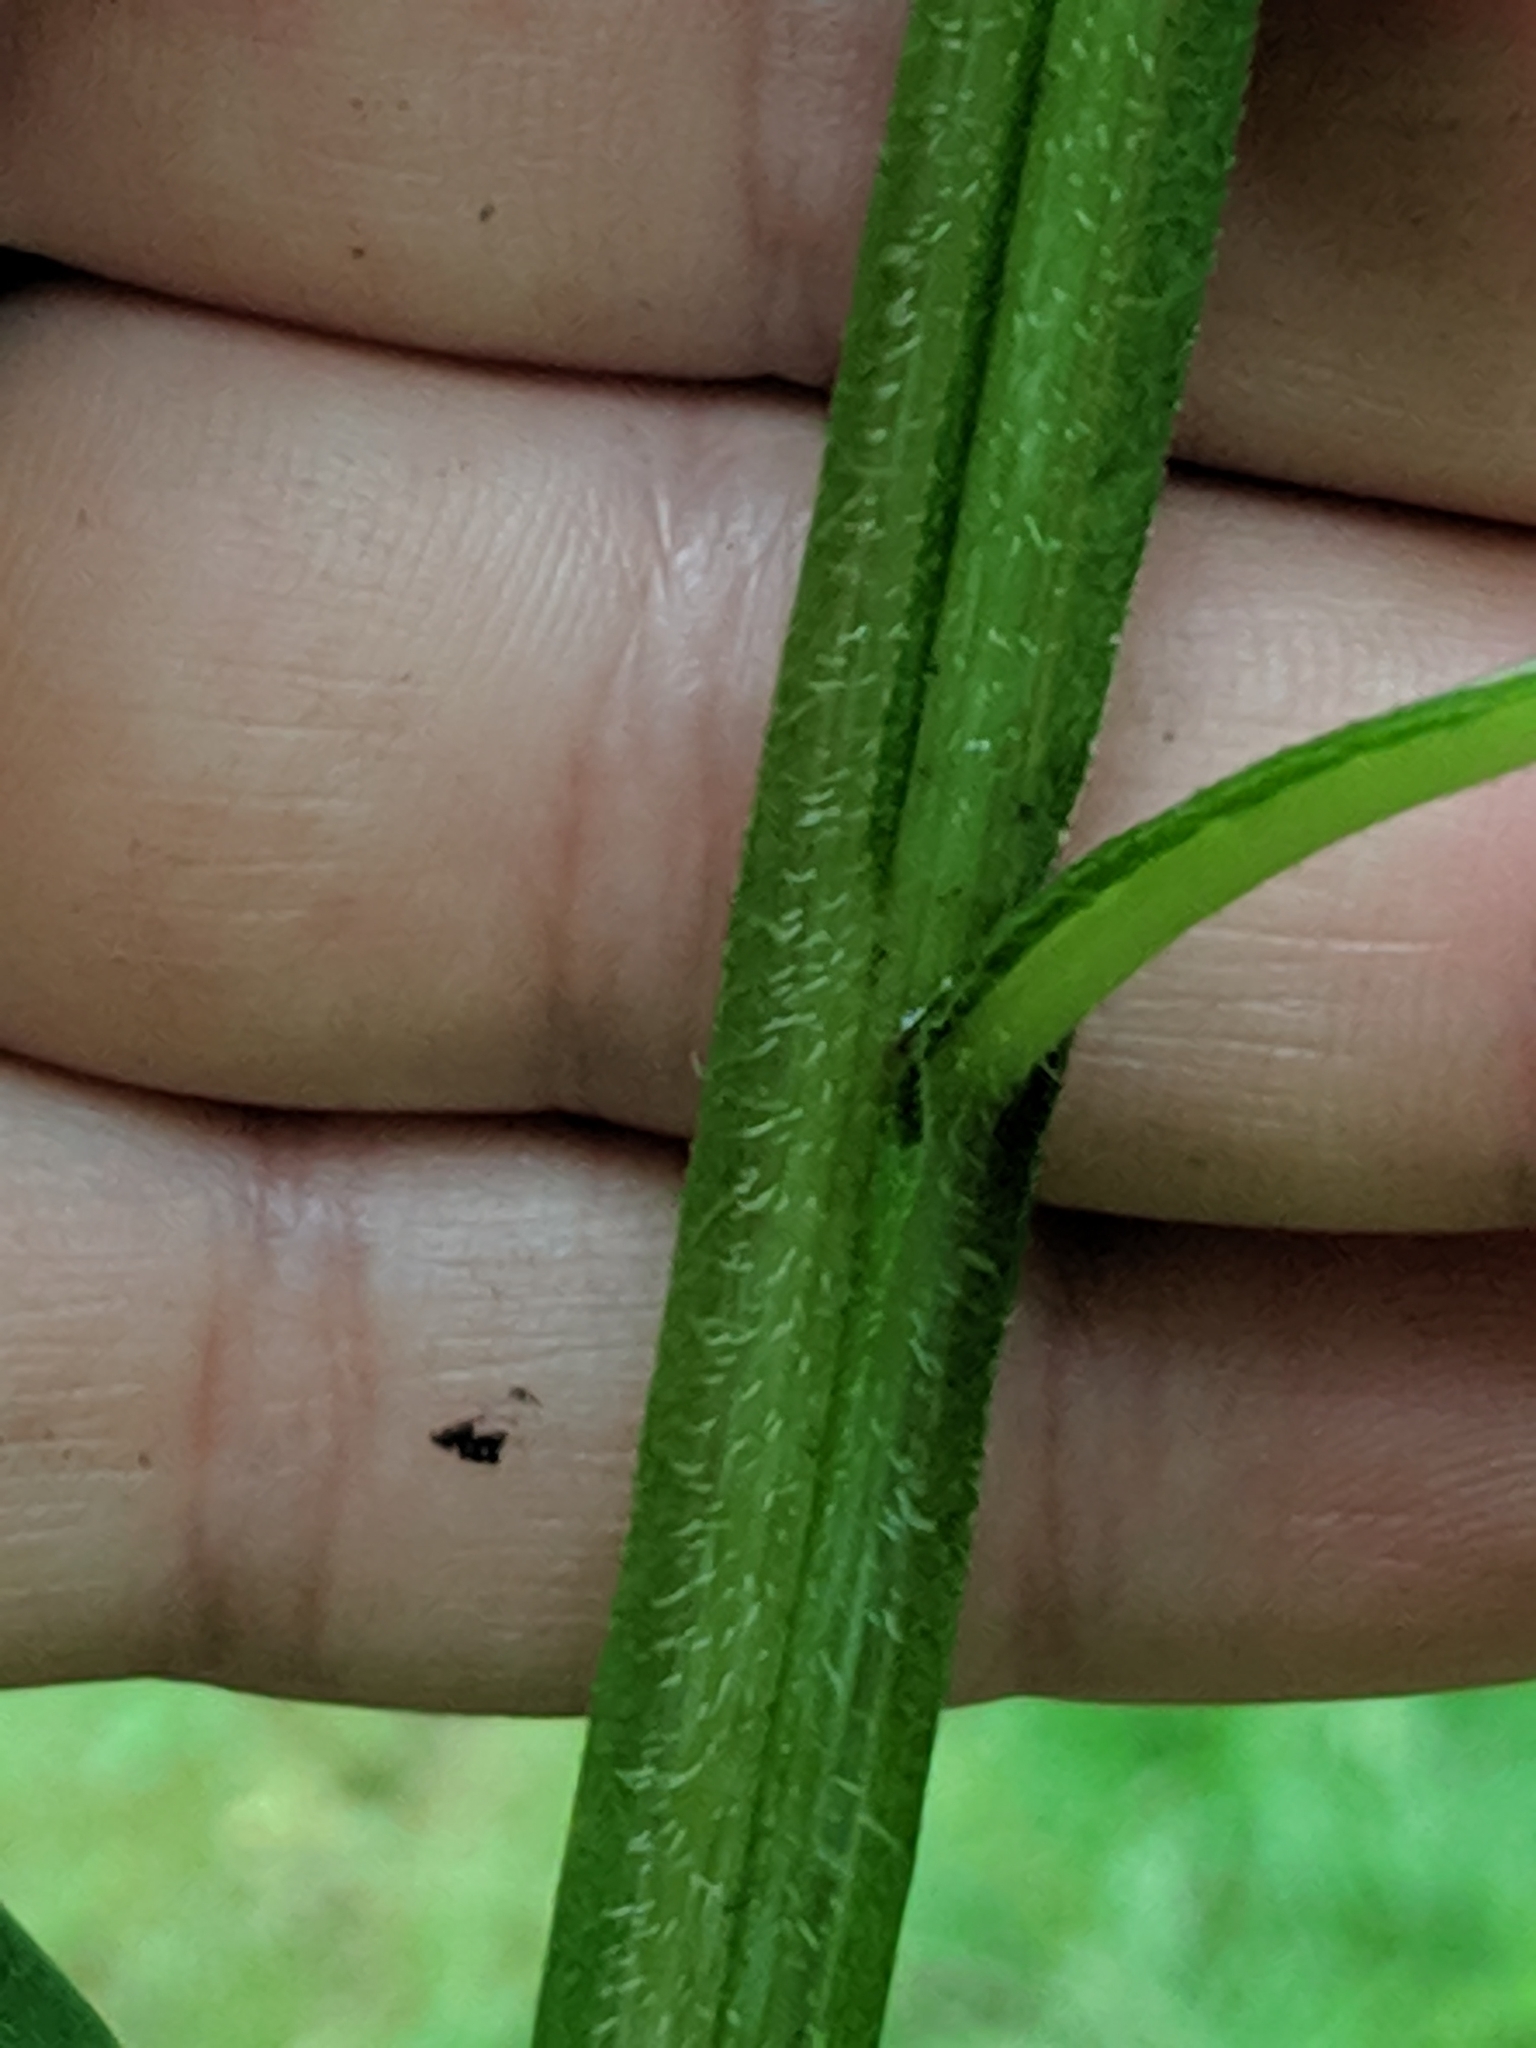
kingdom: Plantae
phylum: Tracheophyta
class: Magnoliopsida
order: Asterales
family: Asteraceae
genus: Verbesina
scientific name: Verbesina alternifolia
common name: Wingstem
